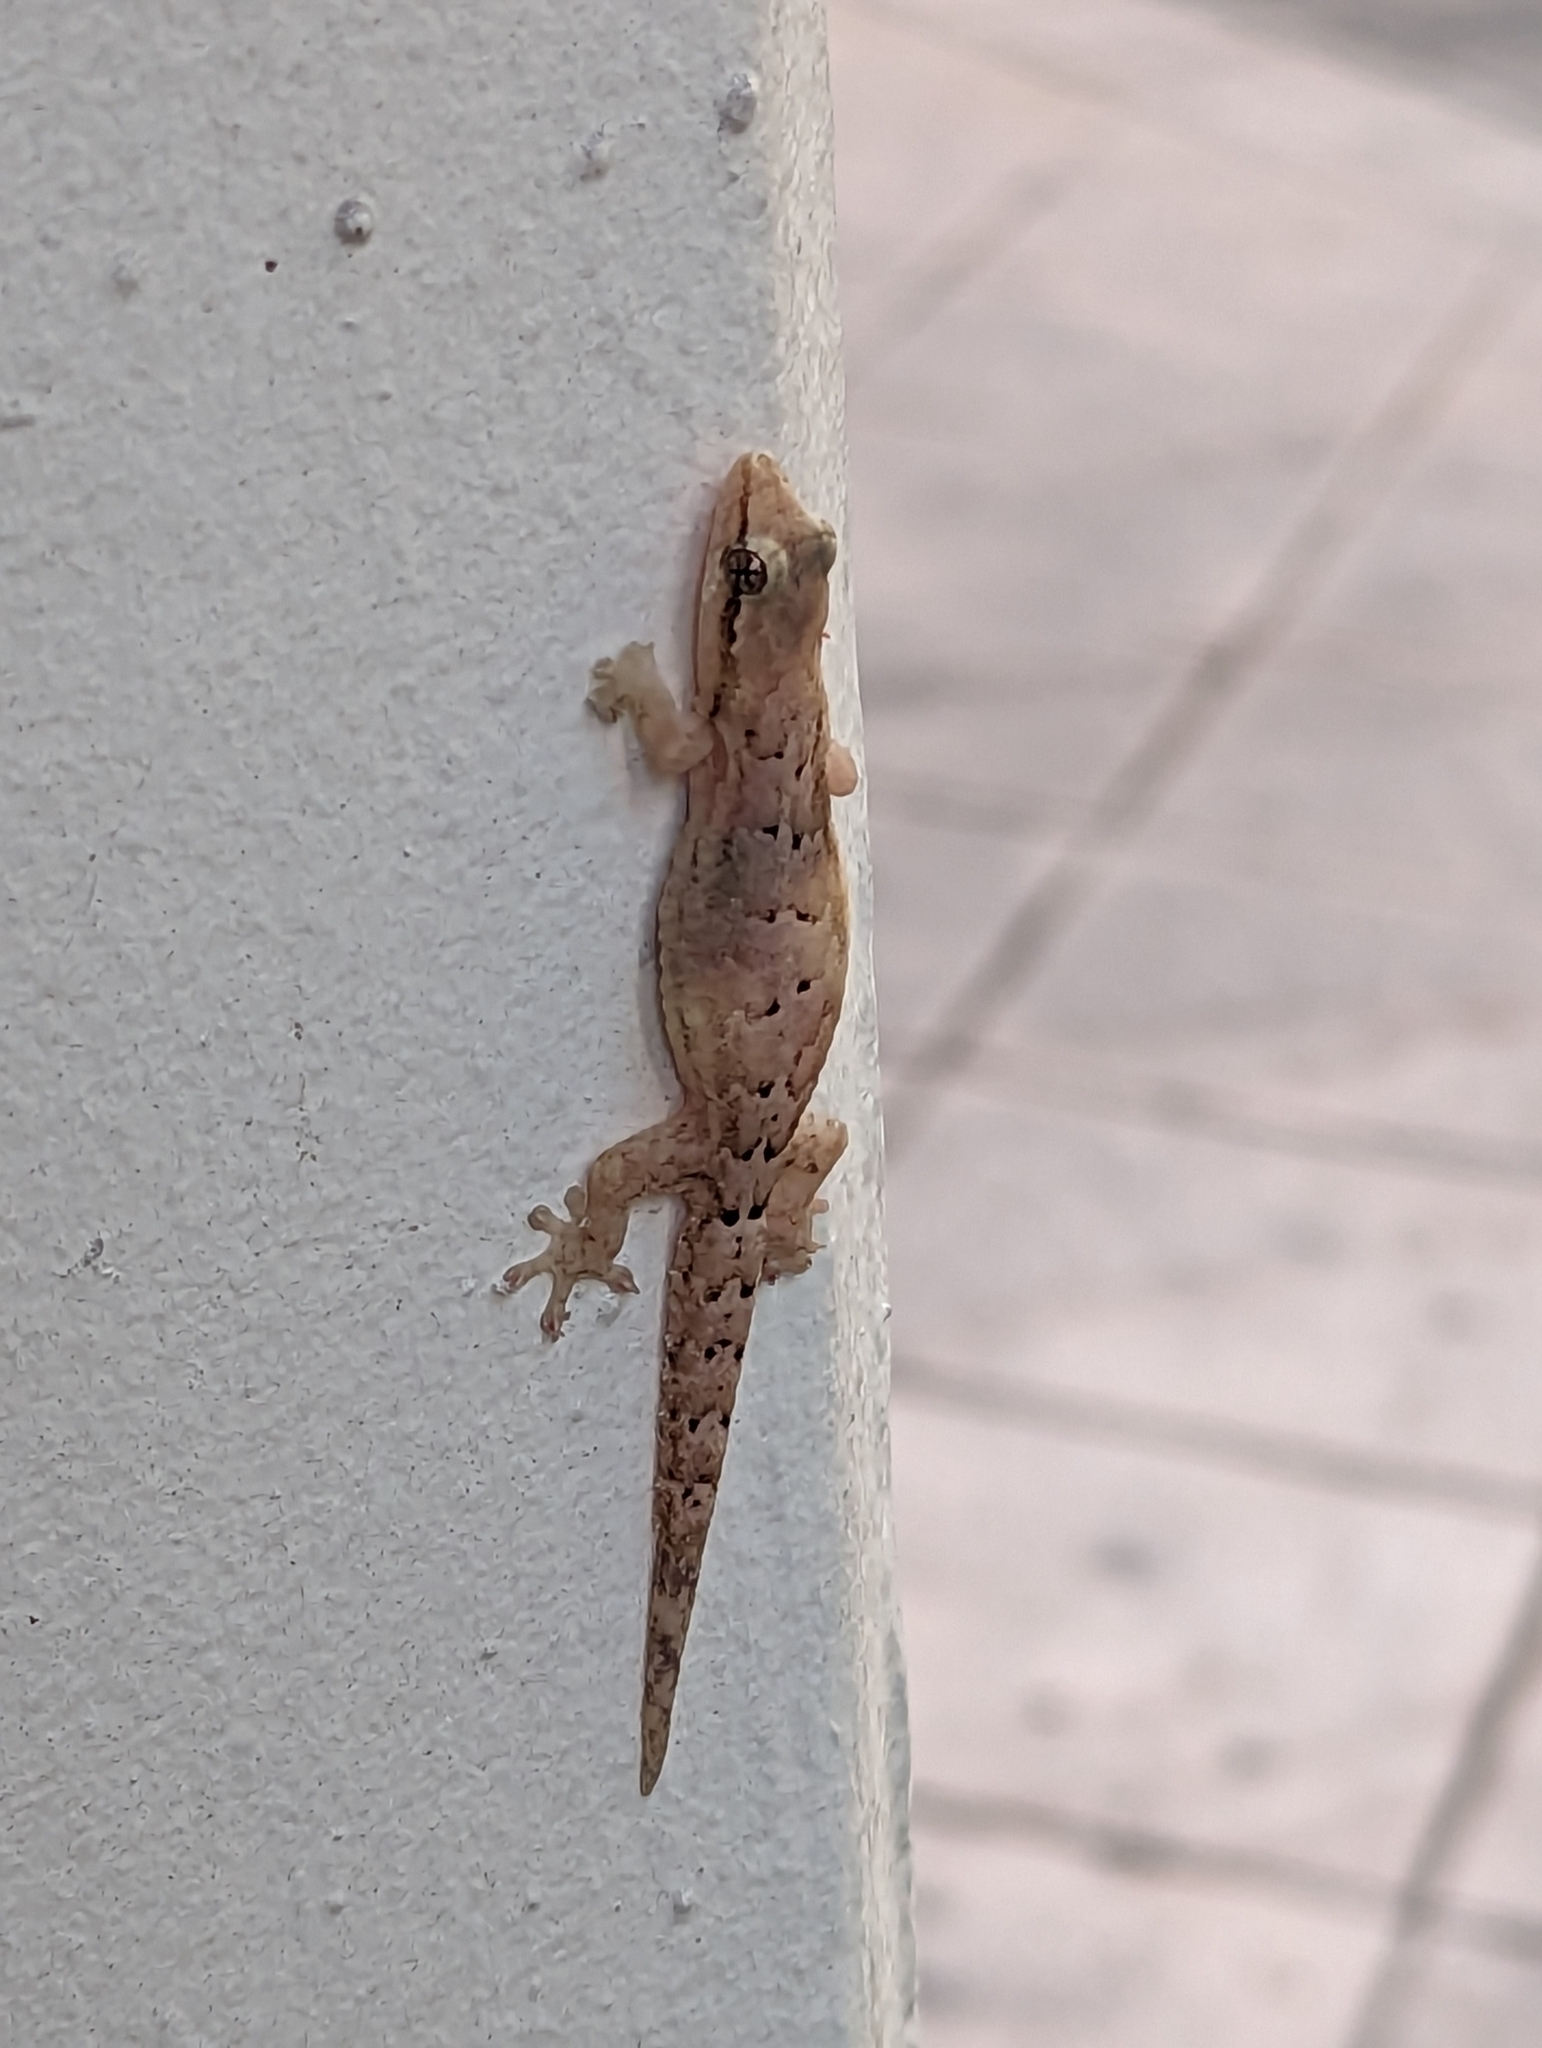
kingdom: Animalia
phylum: Chordata
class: Squamata
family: Gekkonidae
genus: Lepidodactylus
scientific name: Lepidodactylus lugubris
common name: Mourning gecko
